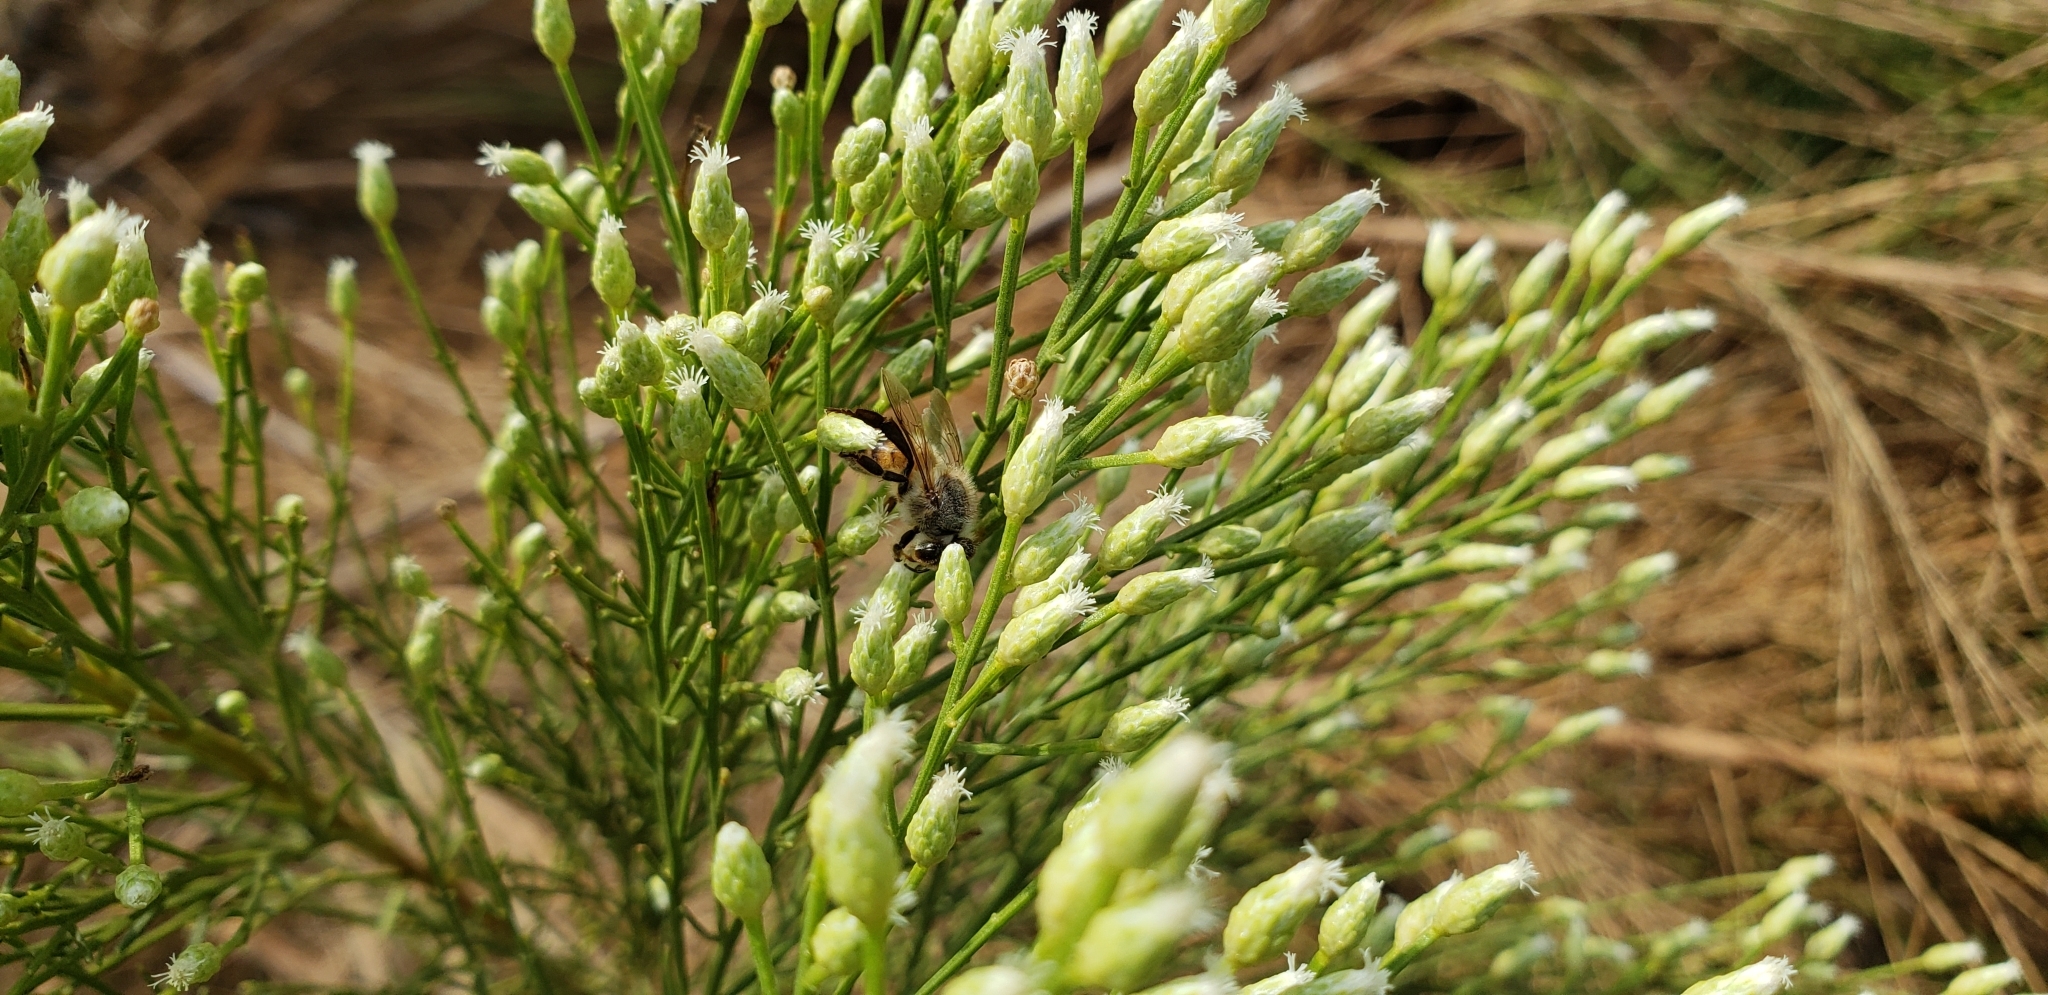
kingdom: Animalia
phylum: Arthropoda
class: Insecta
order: Hymenoptera
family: Apidae
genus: Apis
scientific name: Apis mellifera
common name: Honey bee
